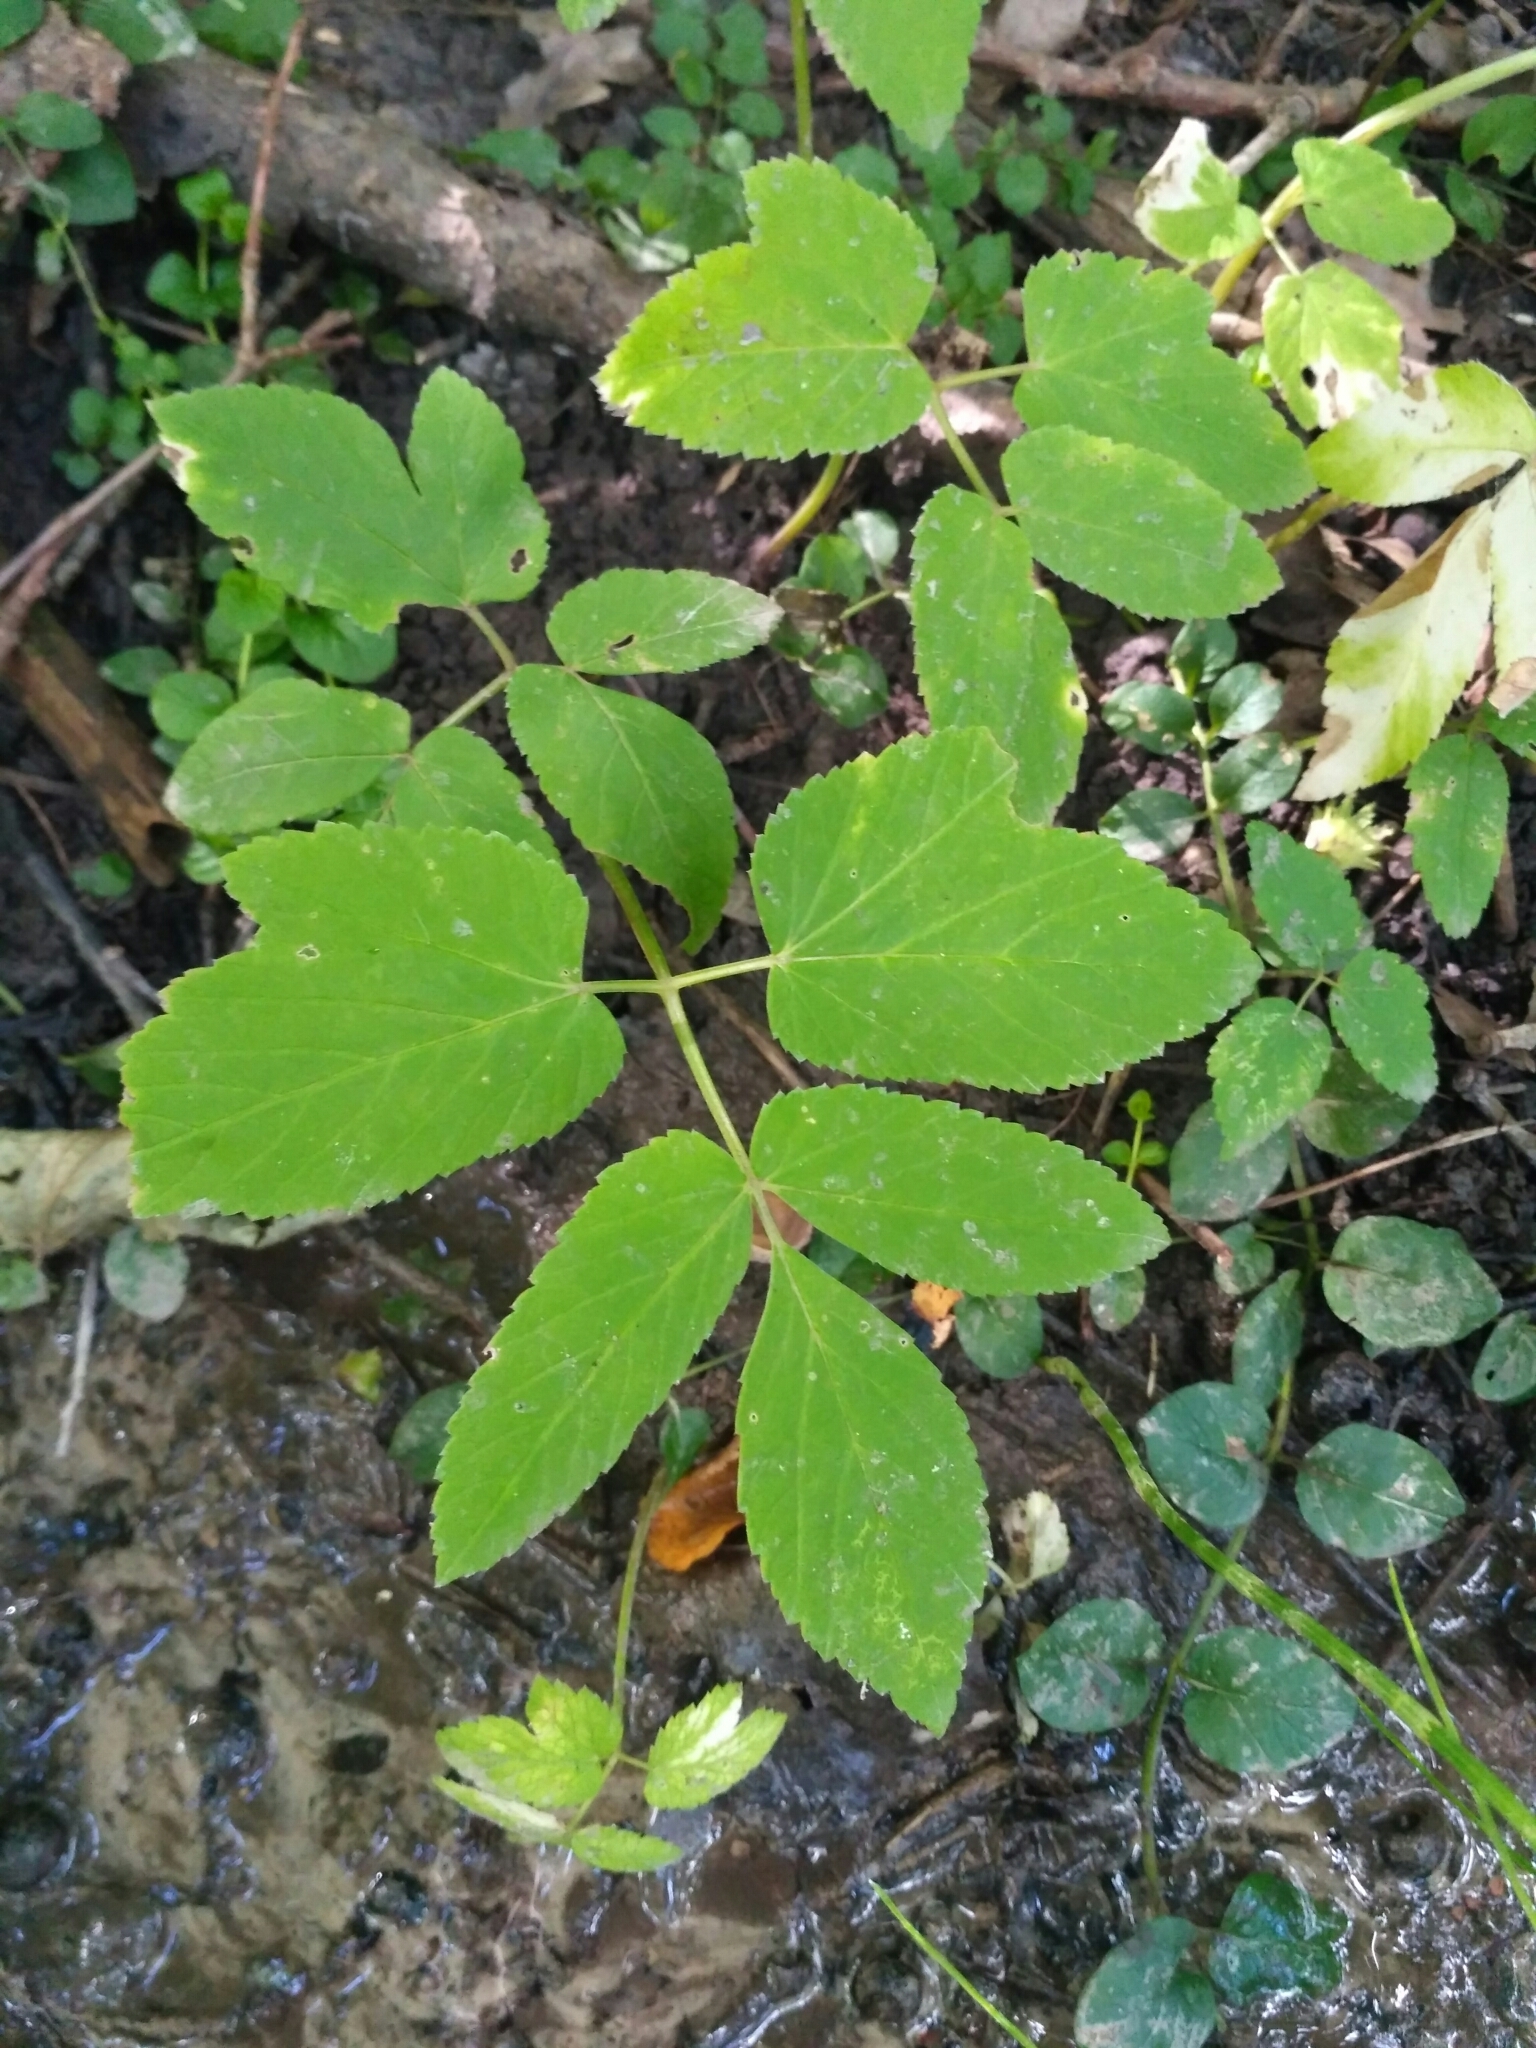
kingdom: Plantae
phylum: Tracheophyta
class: Magnoliopsida
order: Apiales
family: Apiaceae
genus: Aegopodium
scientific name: Aegopodium podagraria
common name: Ground-elder
